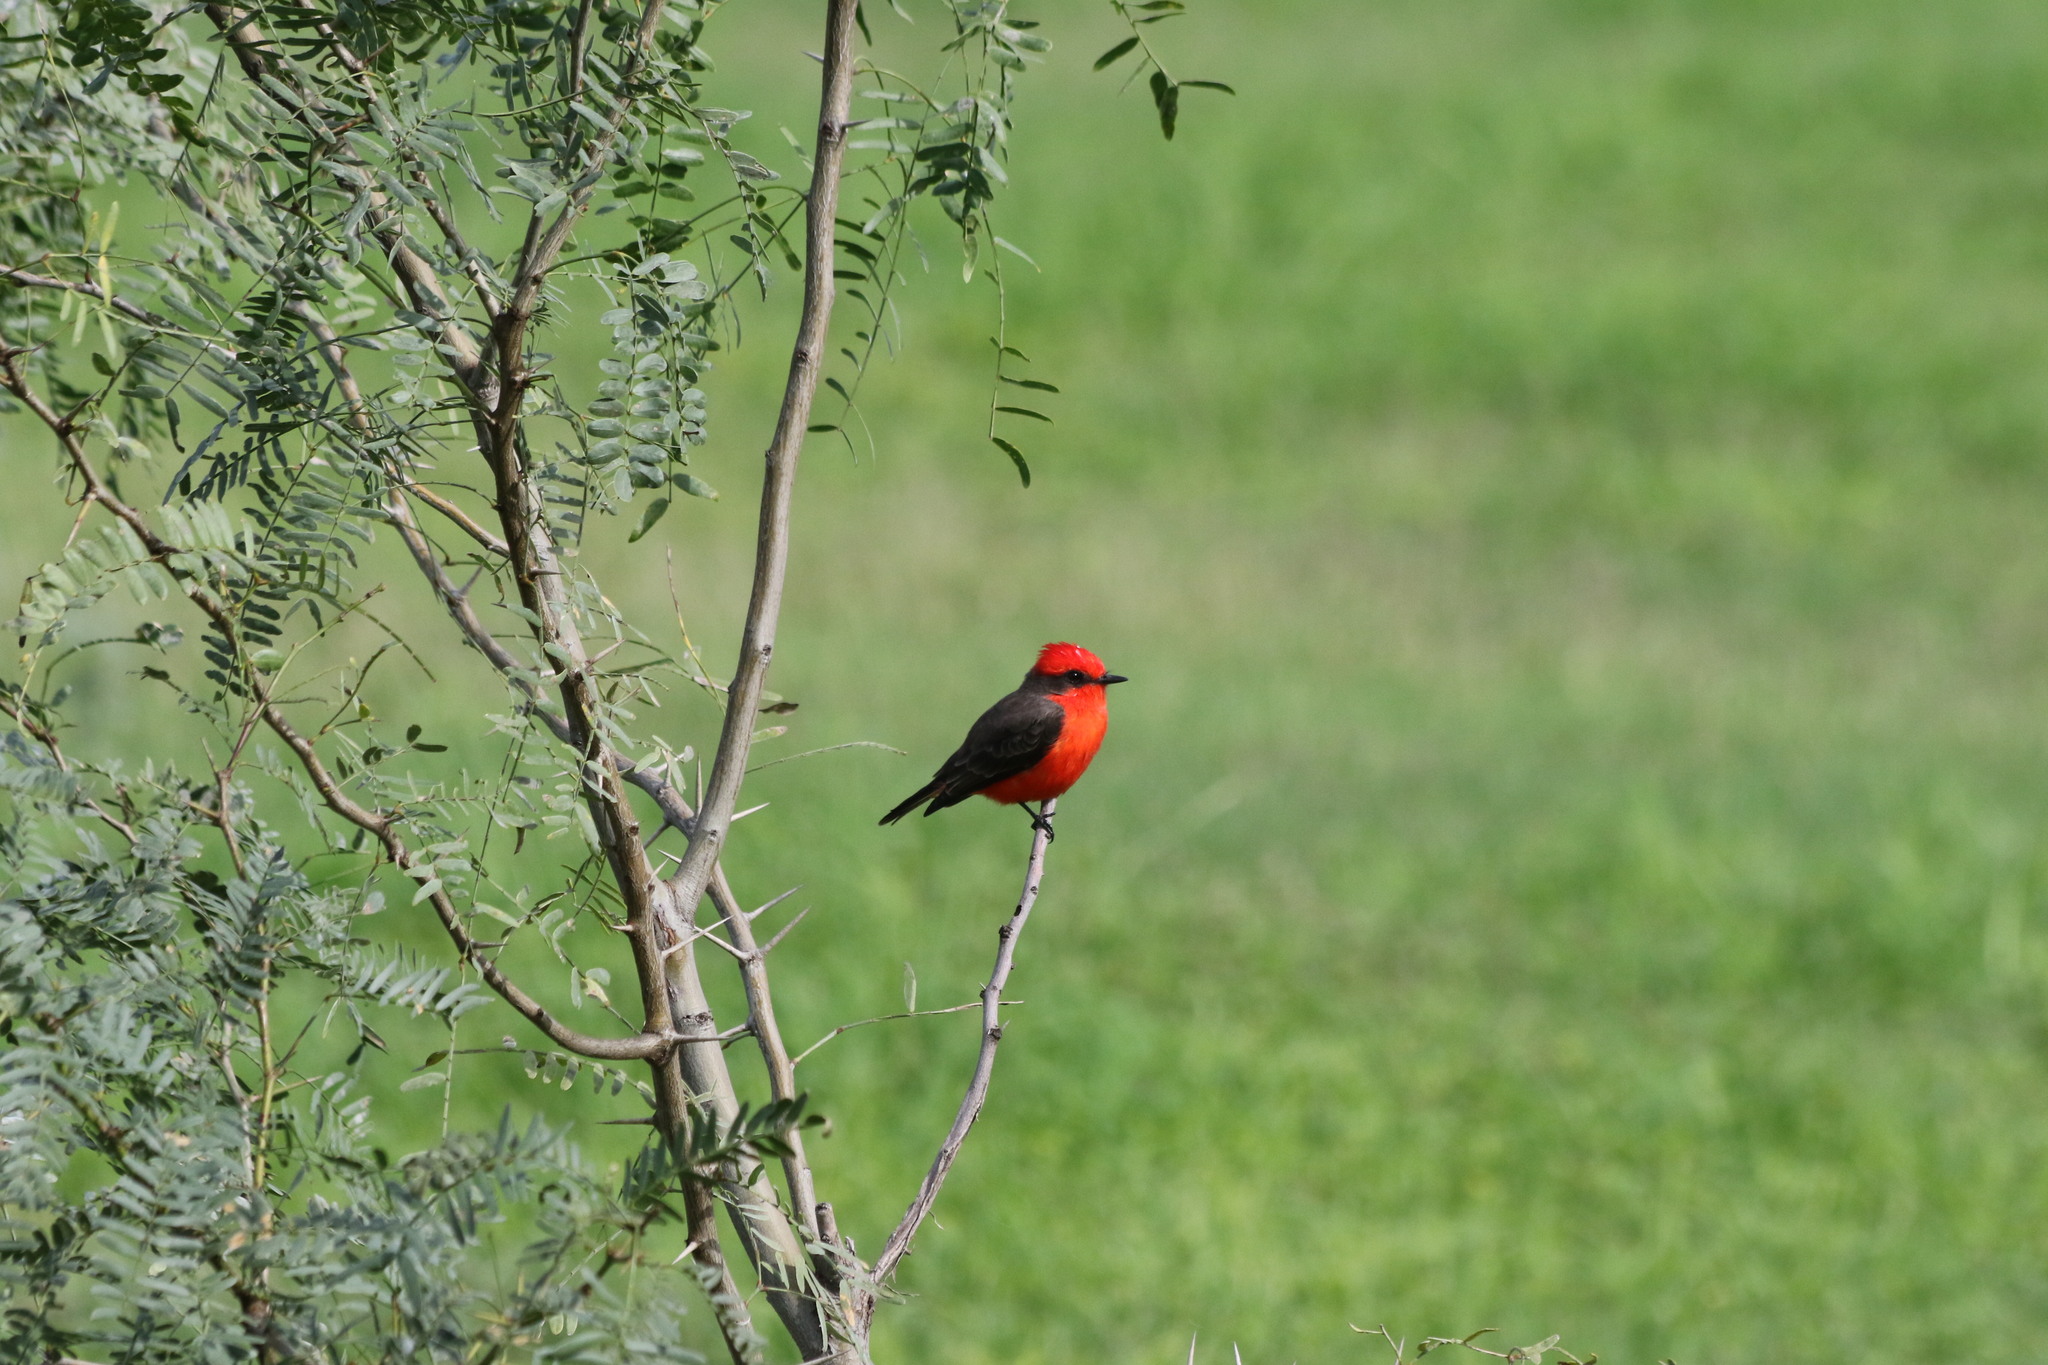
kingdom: Animalia
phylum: Chordata
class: Aves
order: Passeriformes
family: Tyrannidae
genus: Pyrocephalus
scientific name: Pyrocephalus rubinus
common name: Vermilion flycatcher
